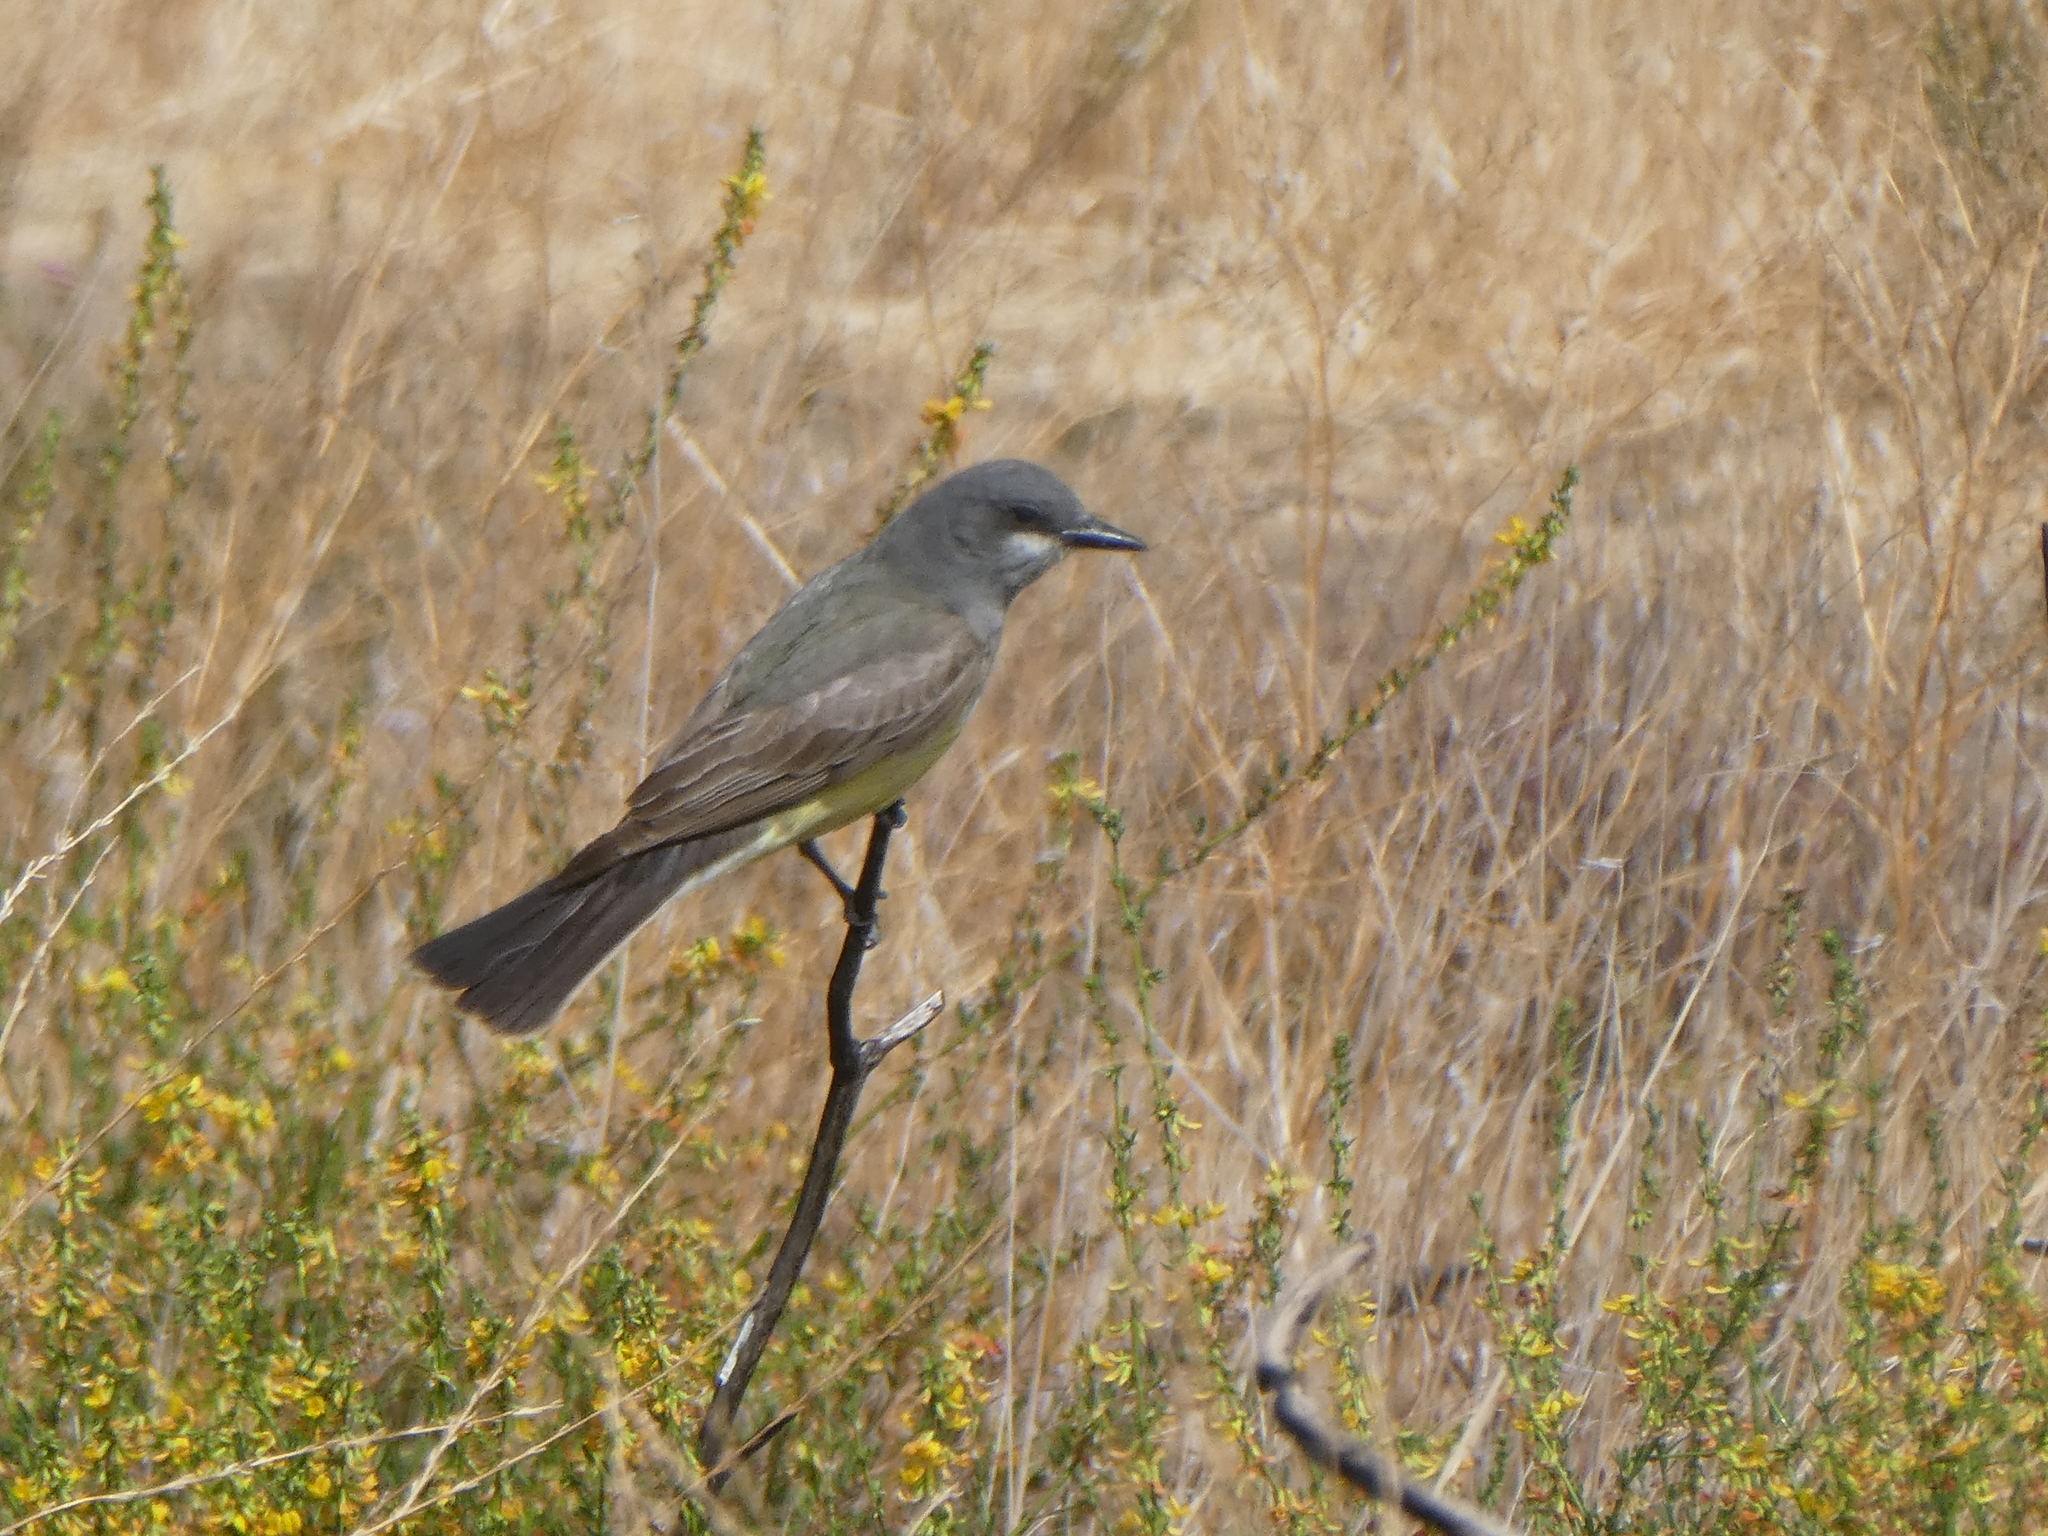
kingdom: Animalia
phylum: Chordata
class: Aves
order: Passeriformes
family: Tyrannidae
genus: Tyrannus
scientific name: Tyrannus vociferans
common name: Cassin's kingbird
